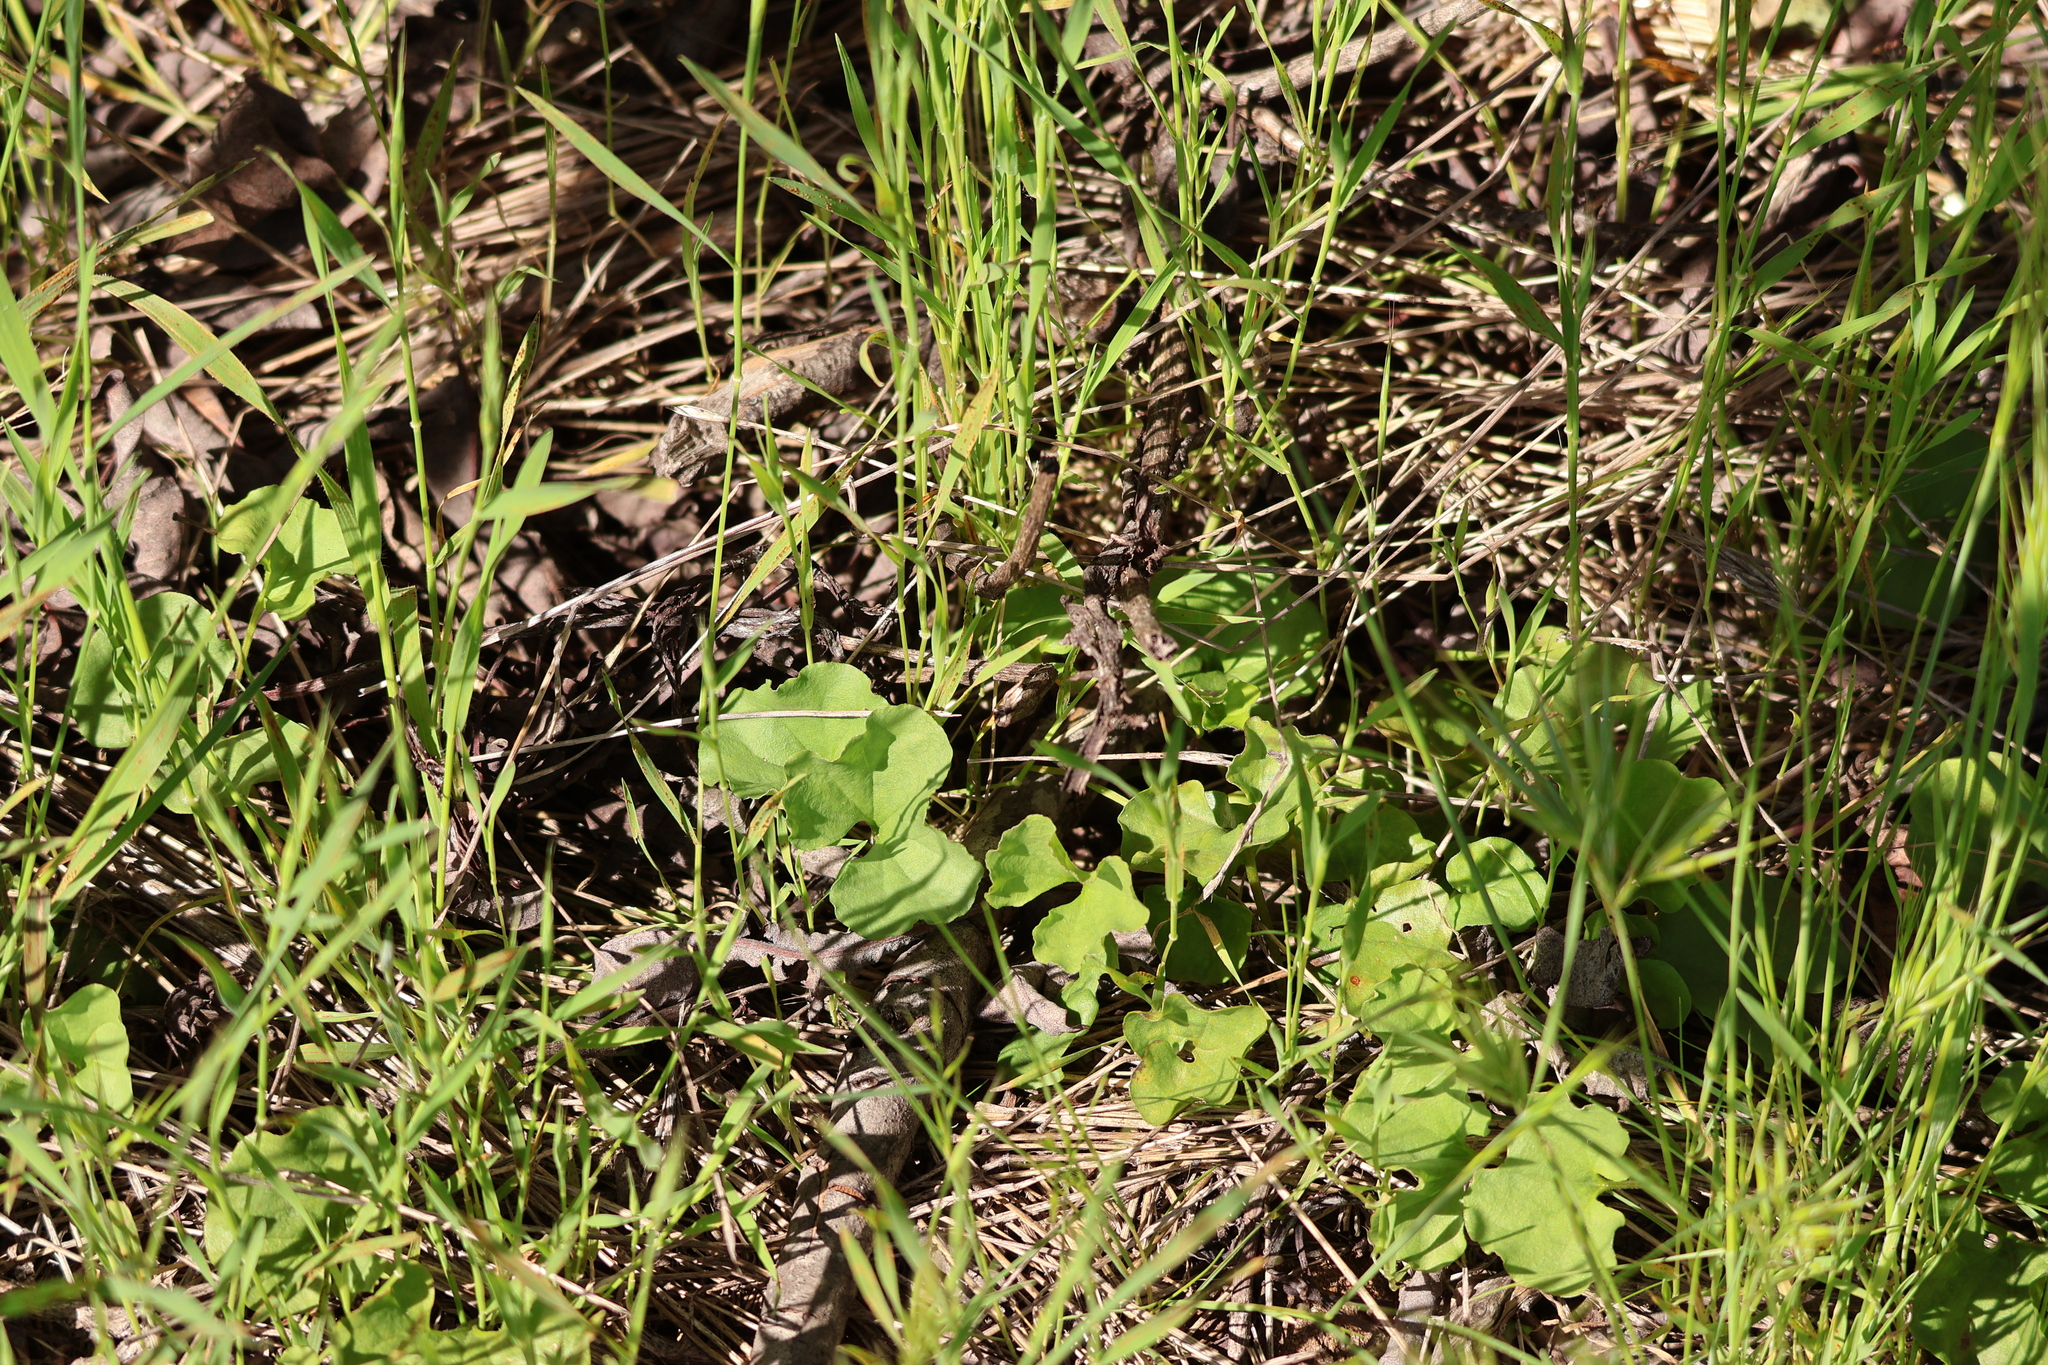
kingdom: Plantae
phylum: Tracheophyta
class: Magnoliopsida
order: Solanales
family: Convolvulaceae
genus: Dichondra
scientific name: Dichondra occidentalis
